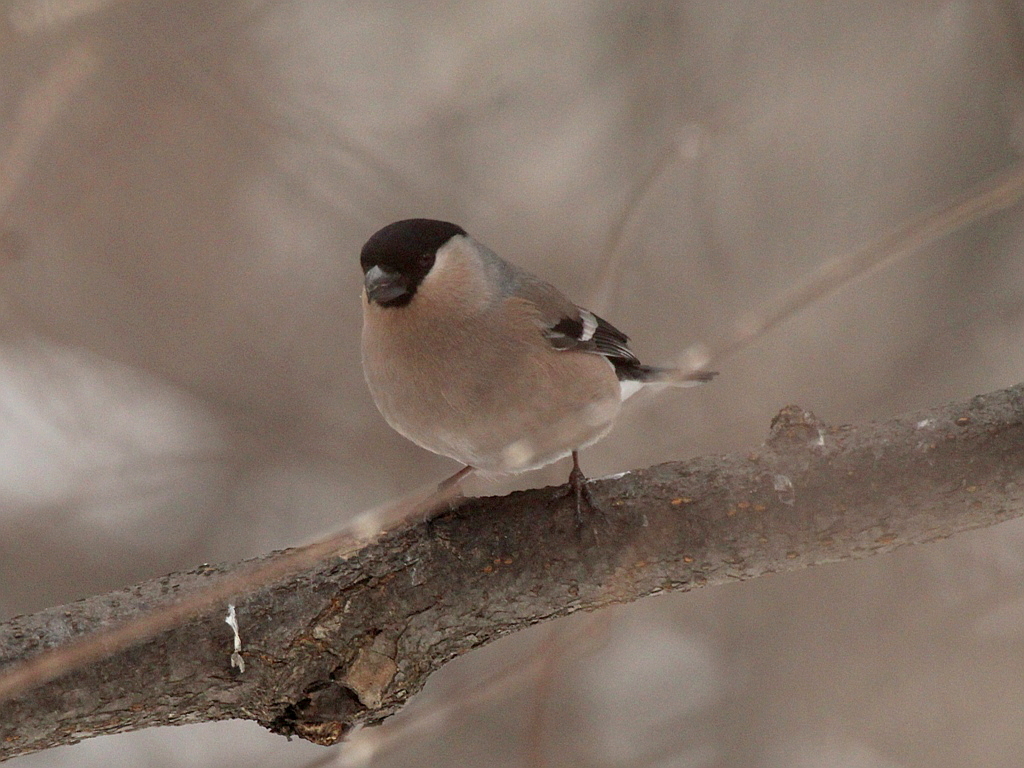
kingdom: Animalia
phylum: Chordata
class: Aves
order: Passeriformes
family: Fringillidae
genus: Pyrrhula
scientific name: Pyrrhula pyrrhula
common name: Eurasian bullfinch
